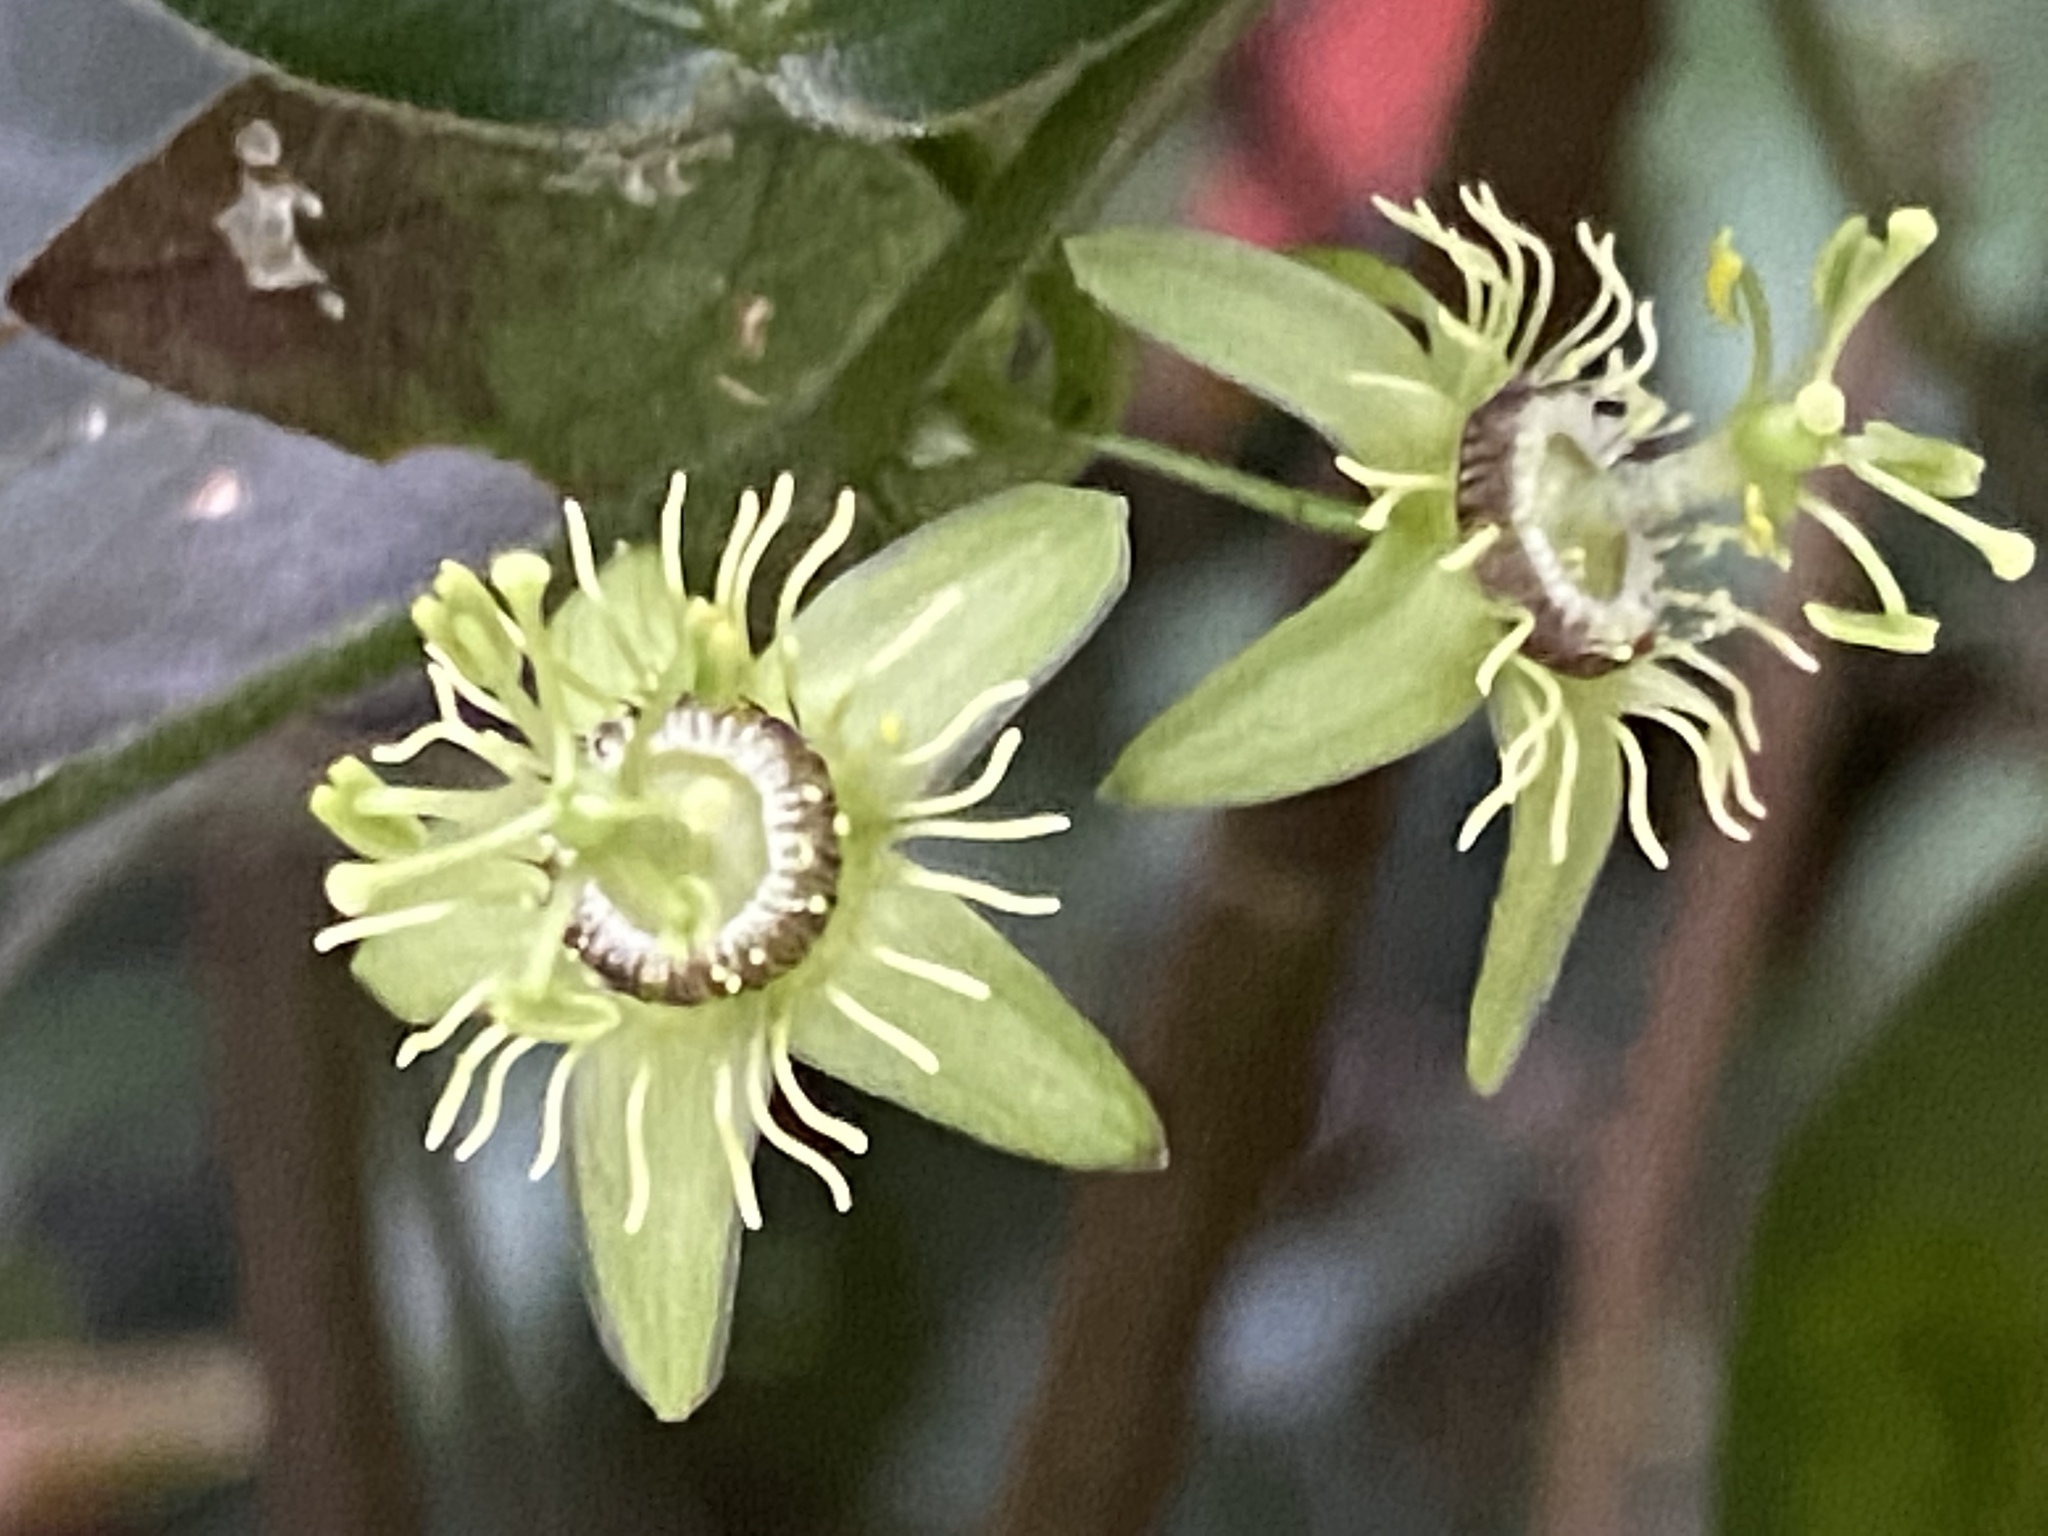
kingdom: Plantae
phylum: Tracheophyta
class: Magnoliopsida
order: Malpighiales
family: Passifloraceae
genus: Passiflora
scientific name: Passiflora suberosa
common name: Wild passionfruit
